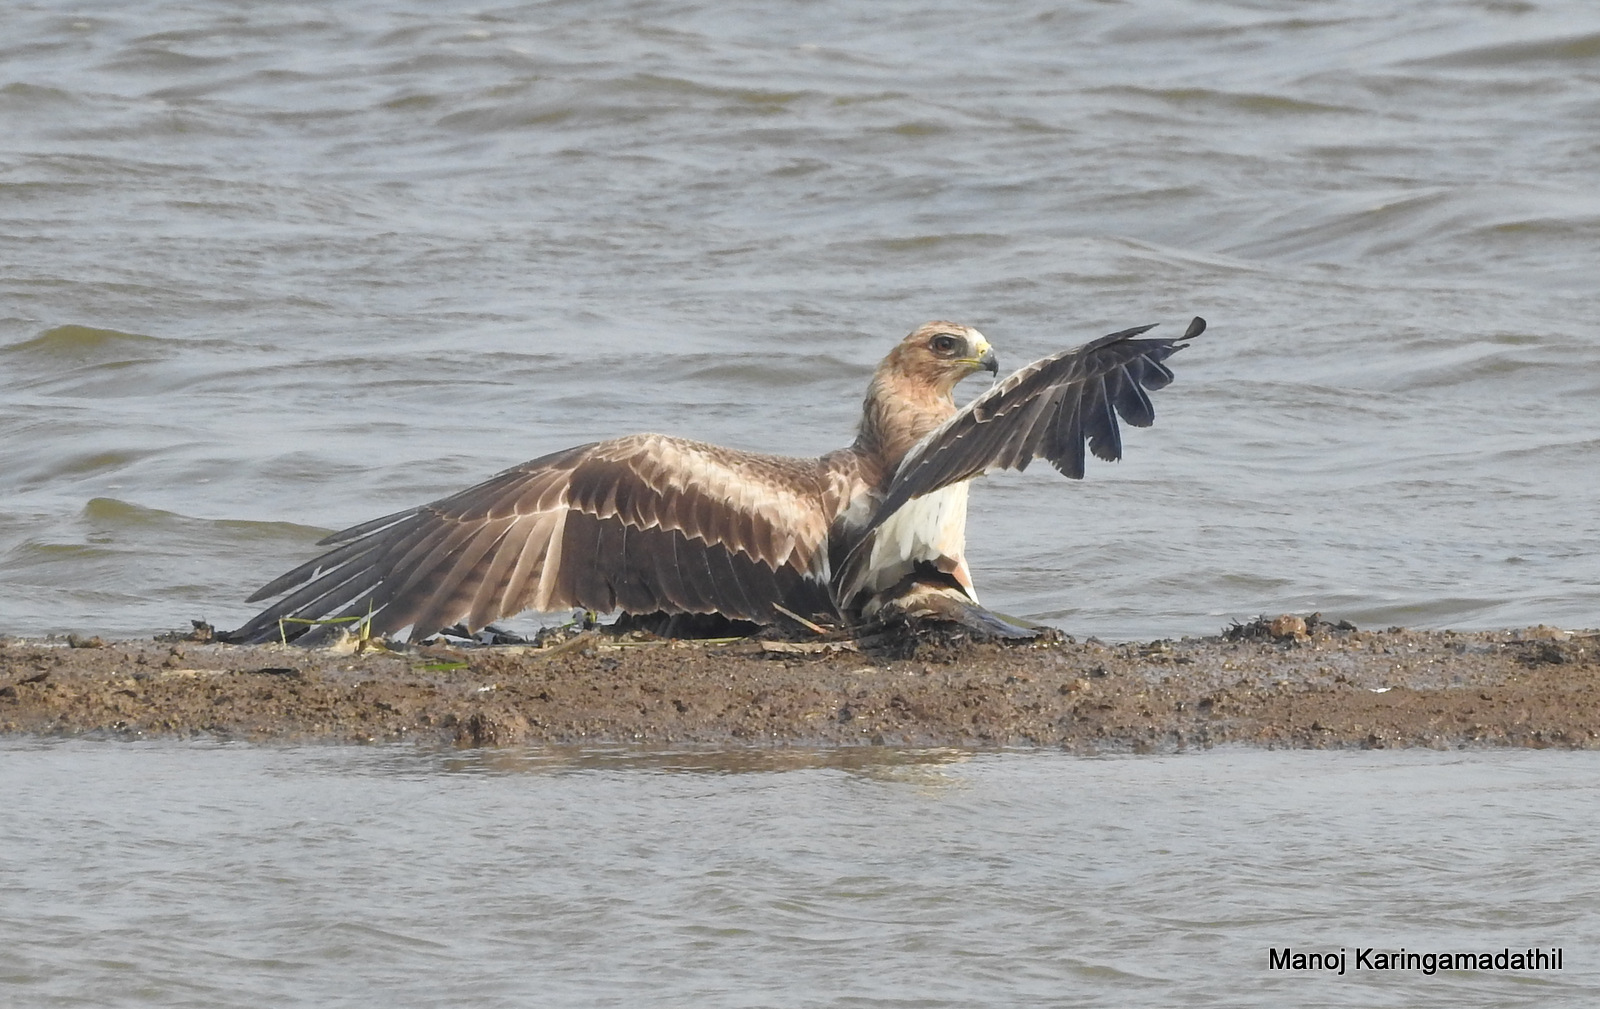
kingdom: Animalia
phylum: Chordata
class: Aves
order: Accipitriformes
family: Accipitridae
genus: Hieraaetus
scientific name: Hieraaetus pennatus
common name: Booted eagle
